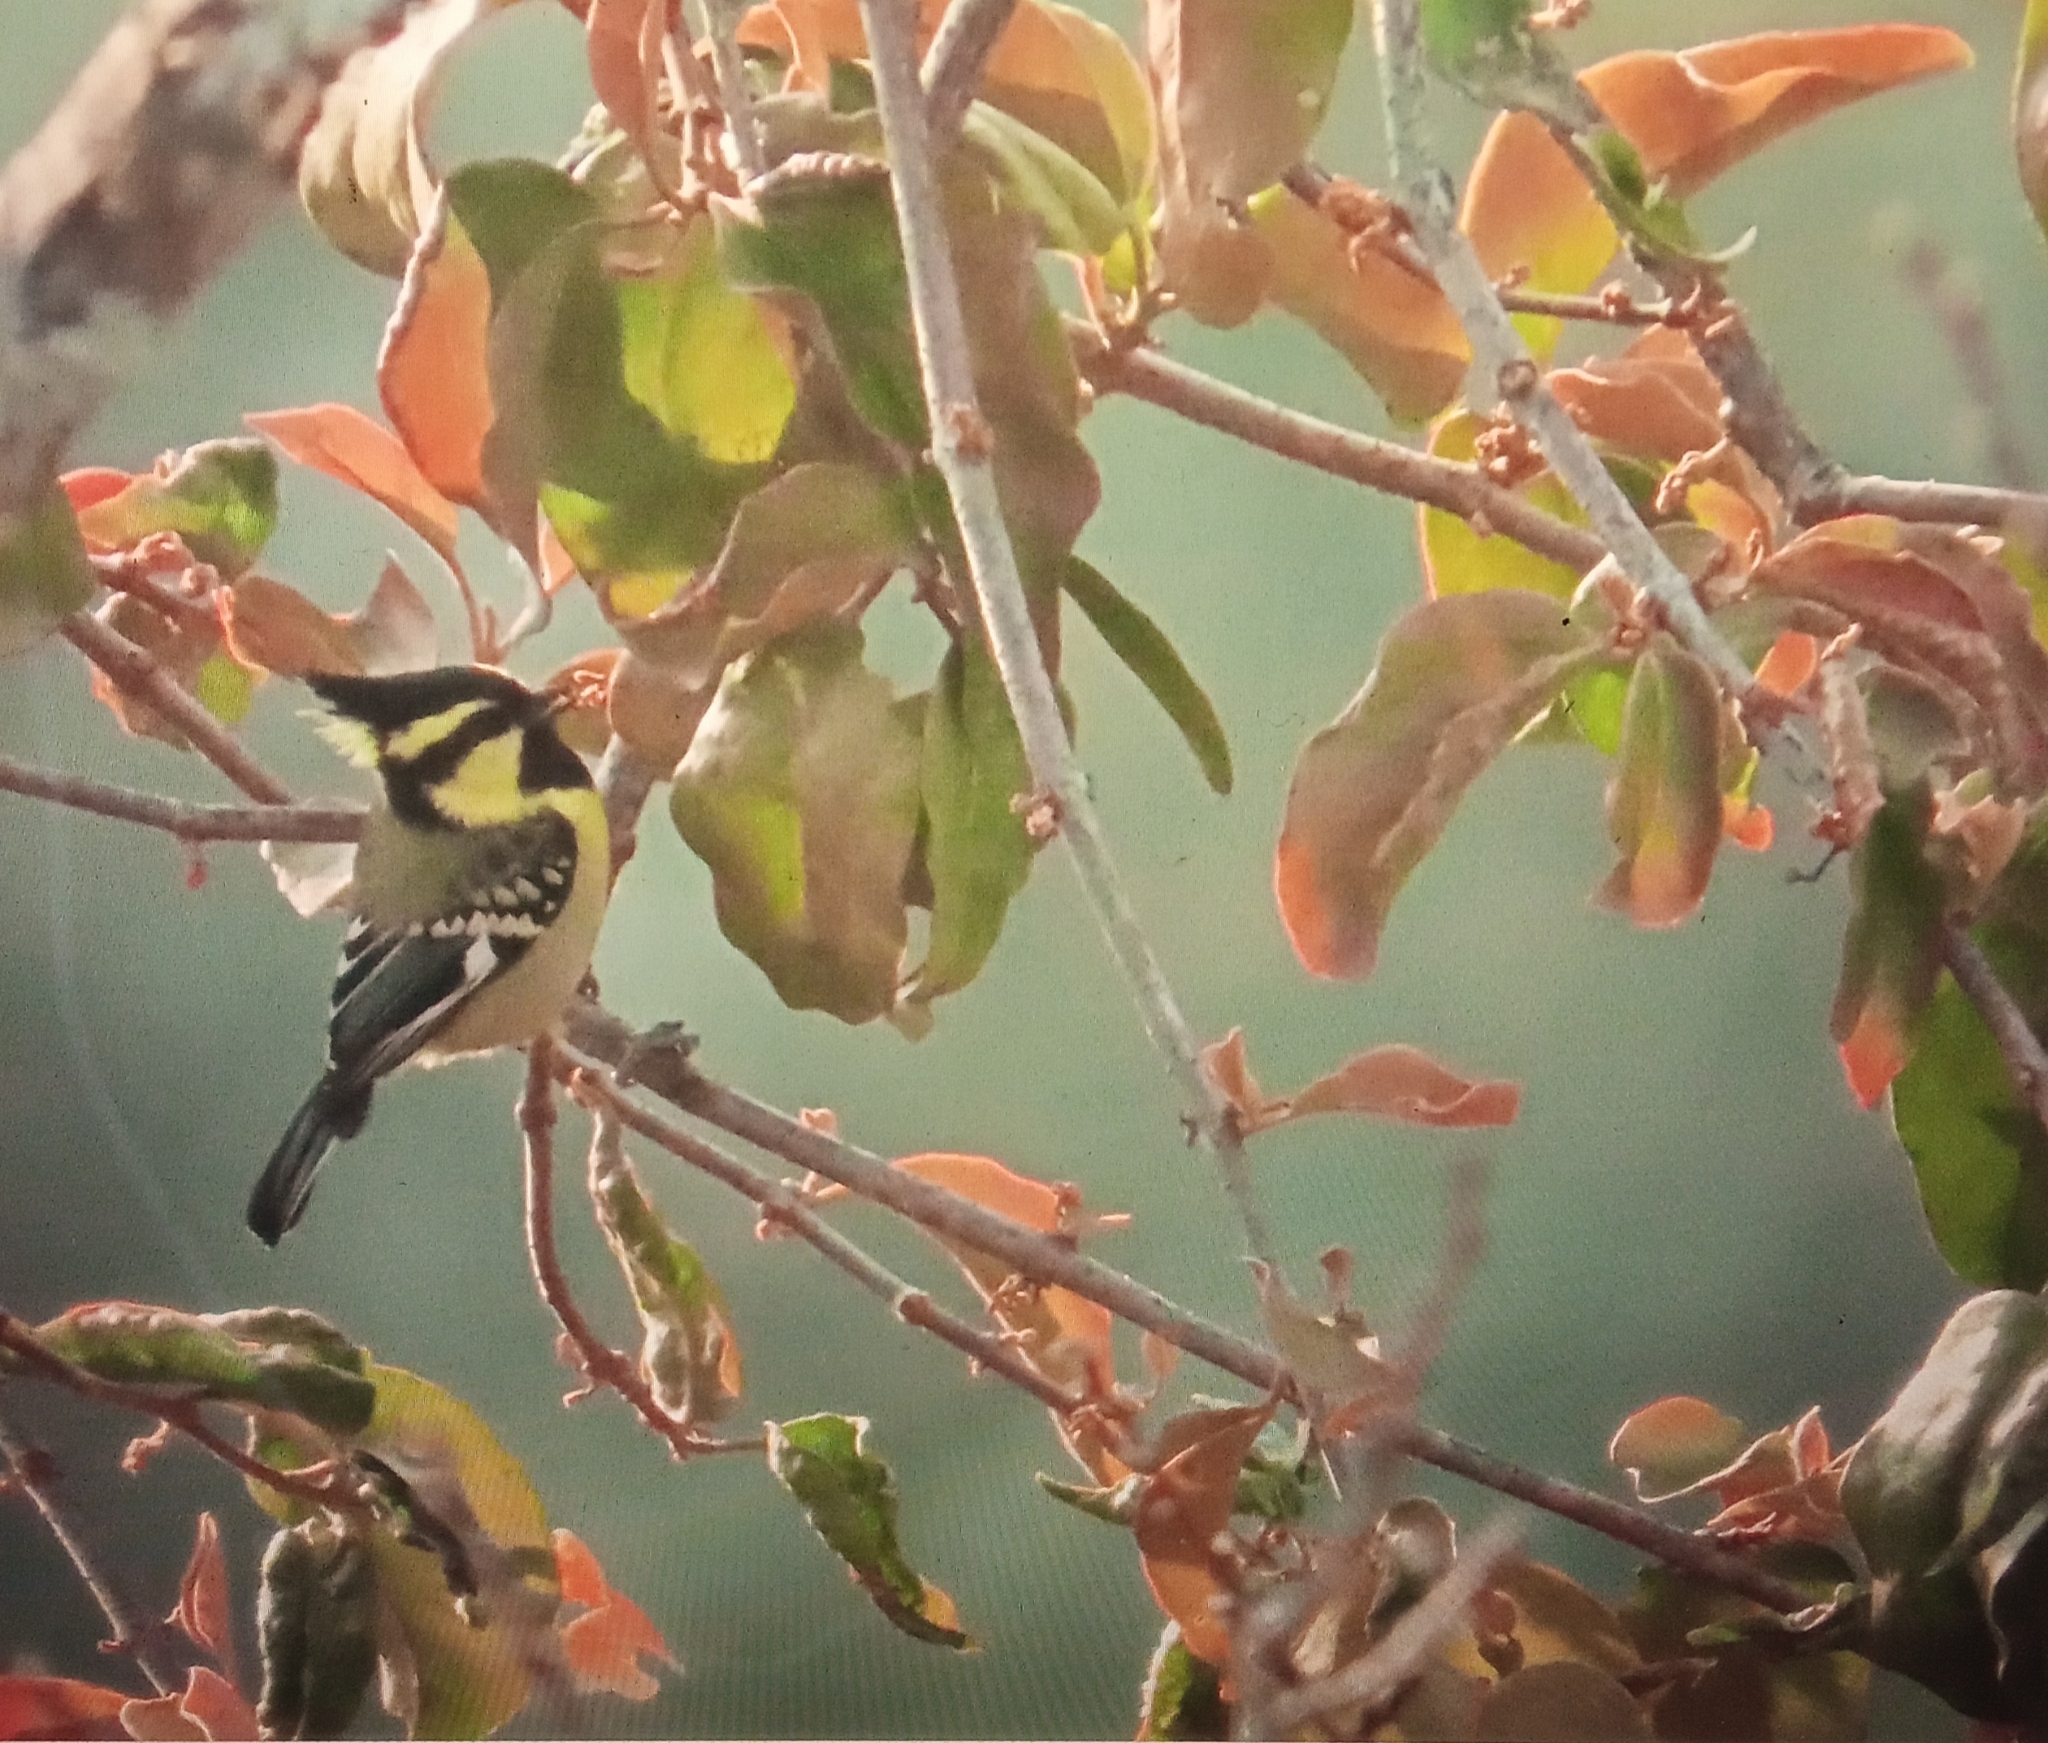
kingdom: Animalia
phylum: Chordata
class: Aves
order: Passeriformes
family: Paridae
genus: Parus
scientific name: Parus xanthogenys
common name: Black-lored tit
